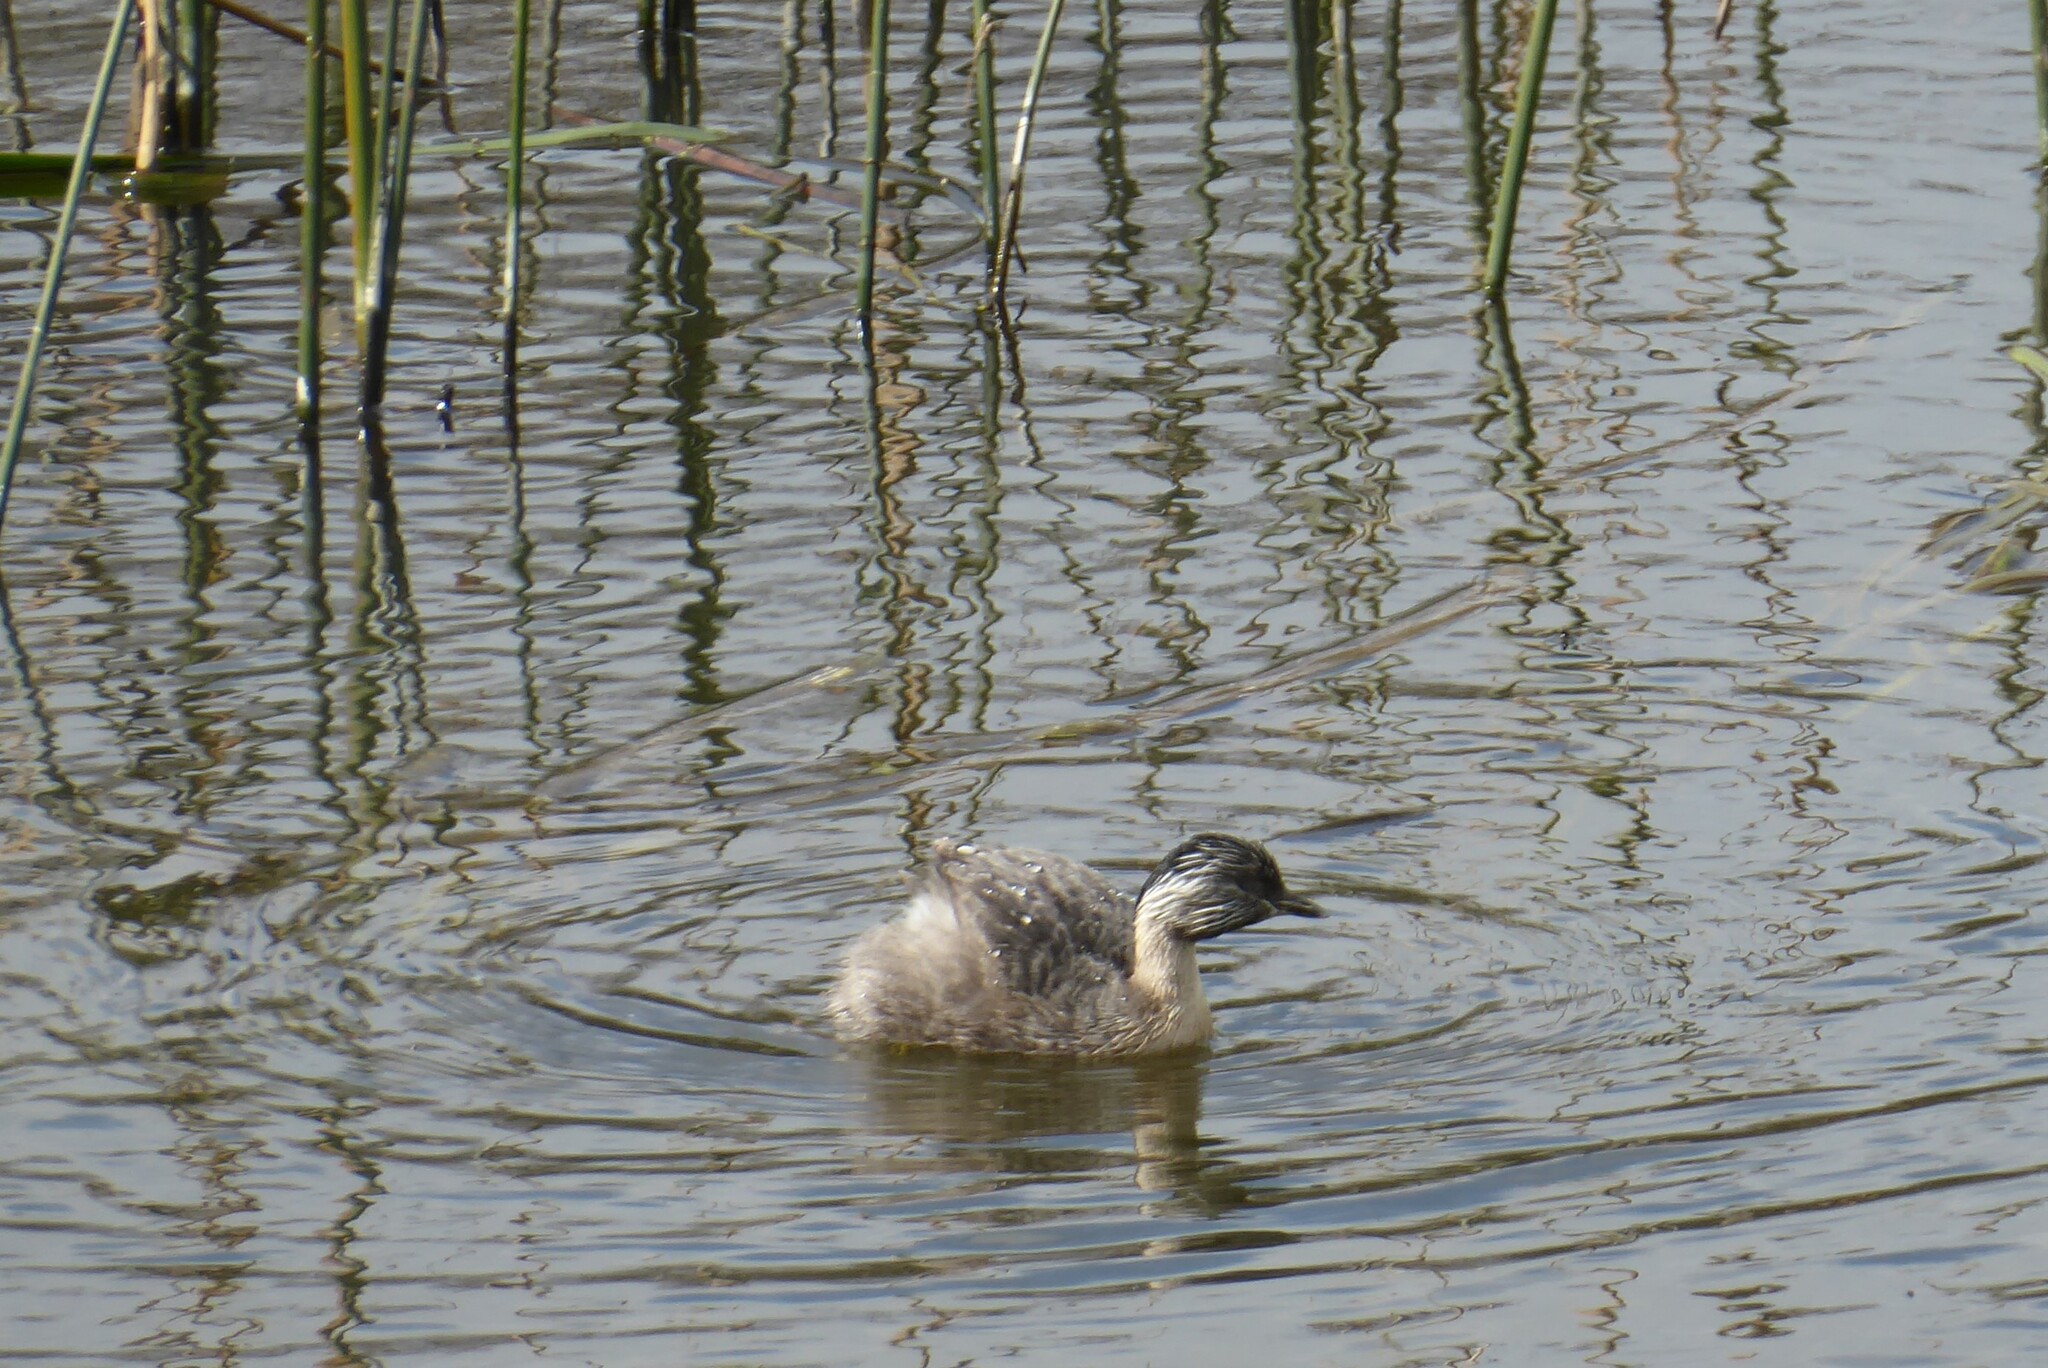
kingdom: Animalia
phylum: Chordata
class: Aves
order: Podicipediformes
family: Podicipedidae
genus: Poliocephalus
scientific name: Poliocephalus poliocephalus
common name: Hoary-headed grebe
